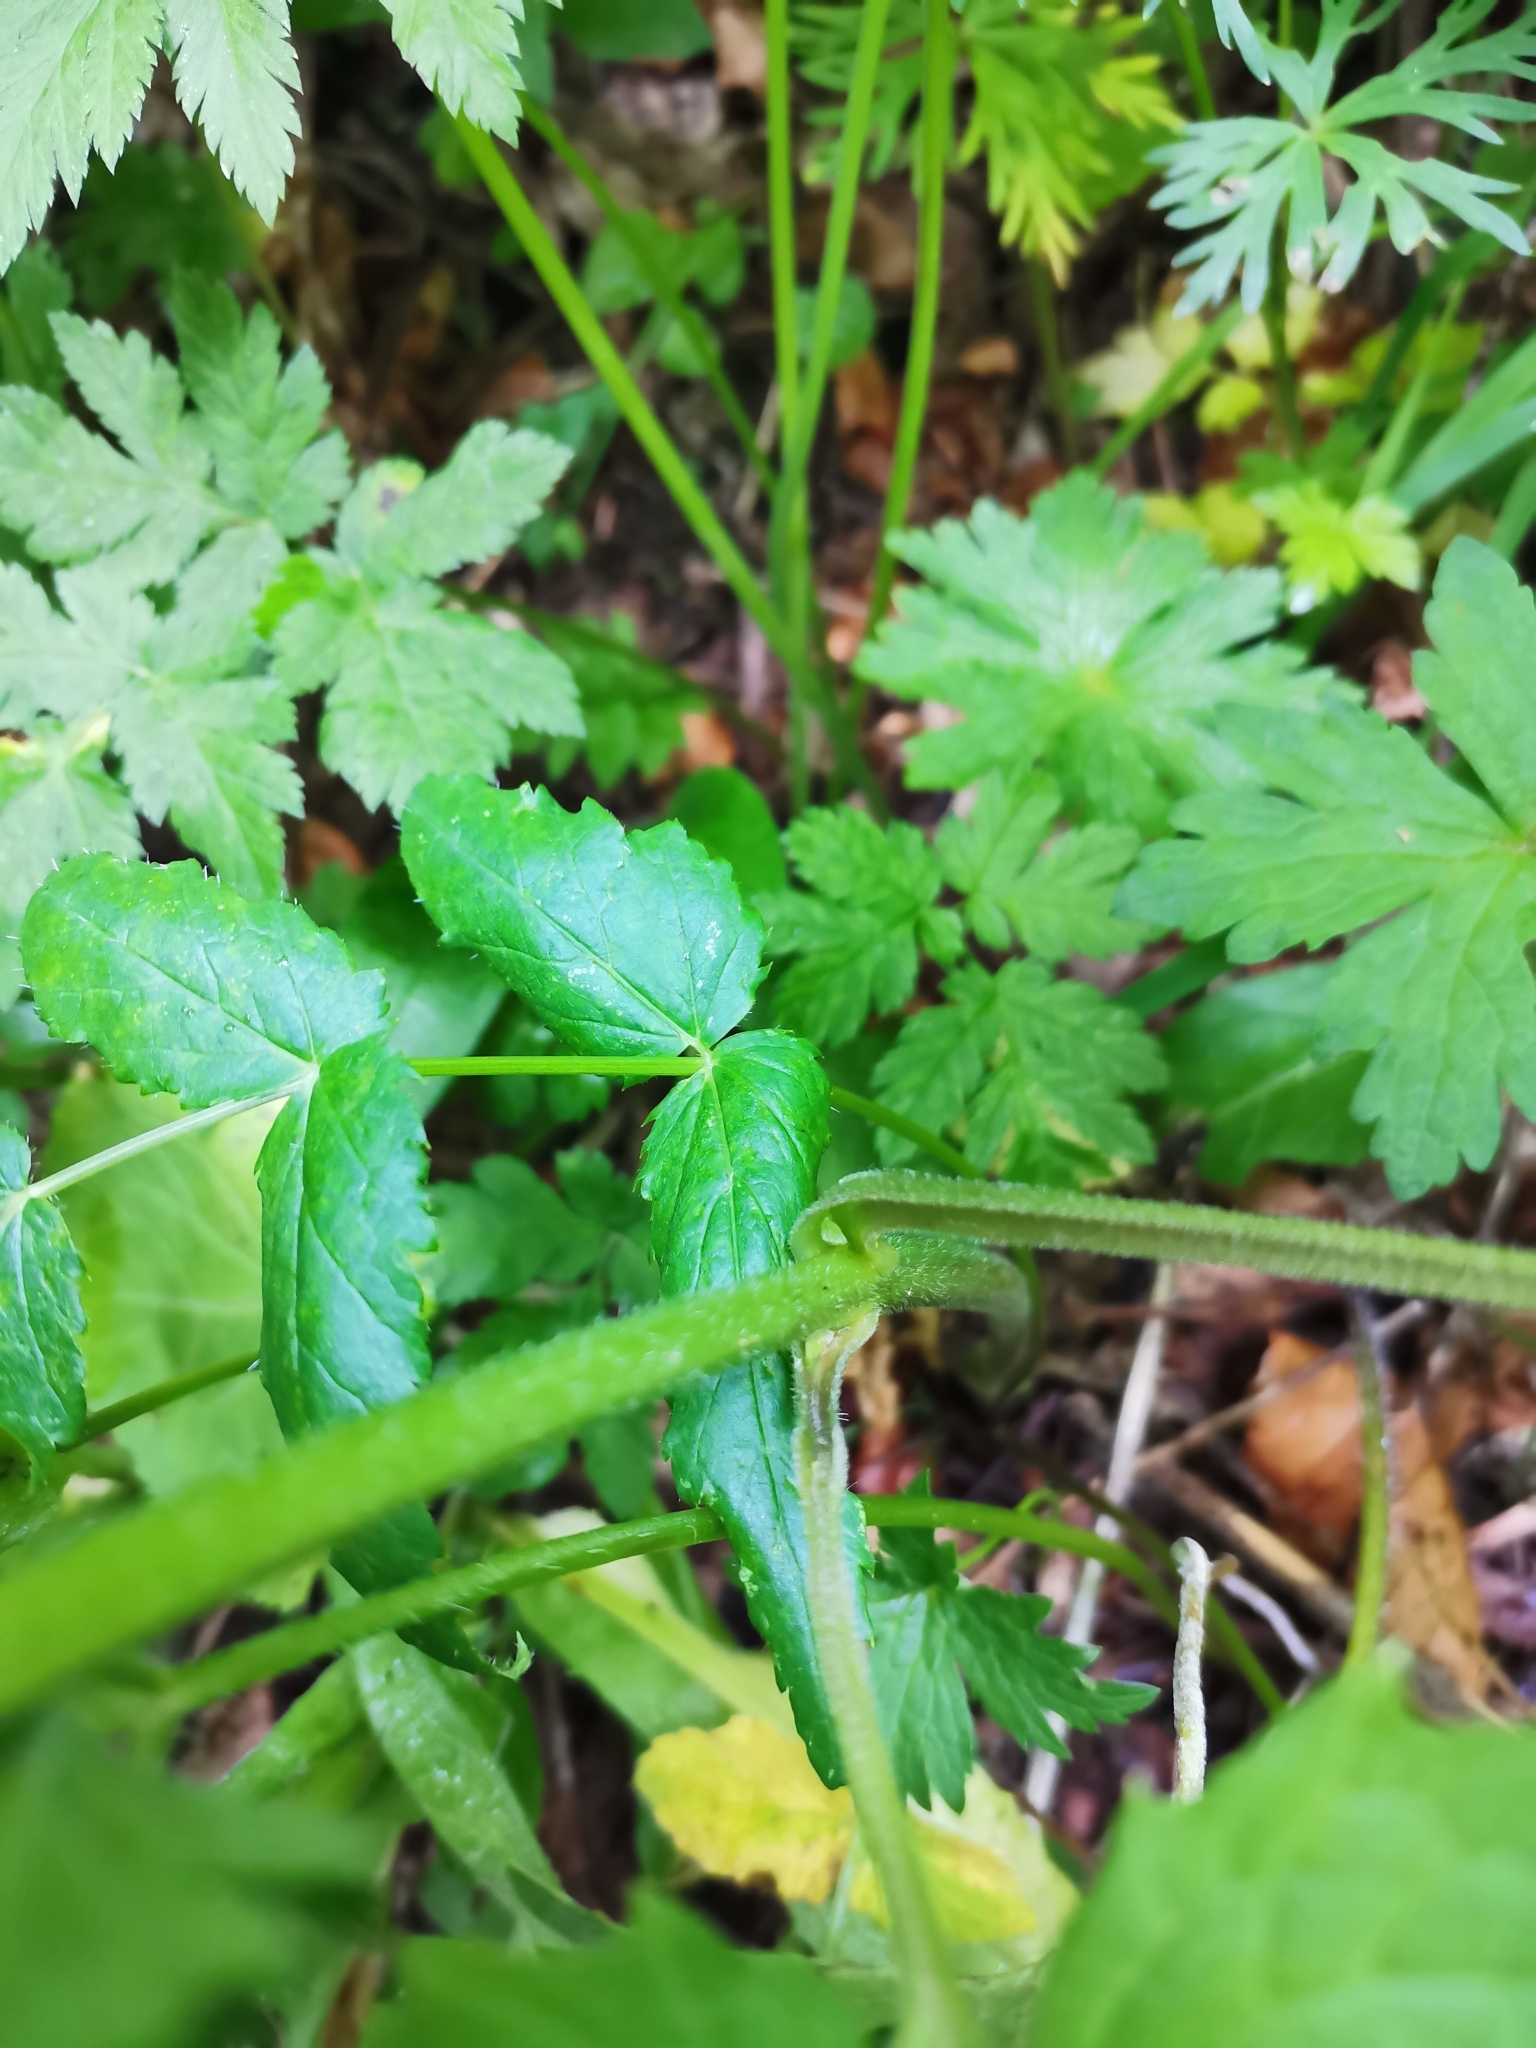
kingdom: Plantae
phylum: Tracheophyta
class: Magnoliopsida
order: Brassicales
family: Brassicaceae
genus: Lunaria
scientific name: Lunaria rediviva
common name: Perennial honesty
